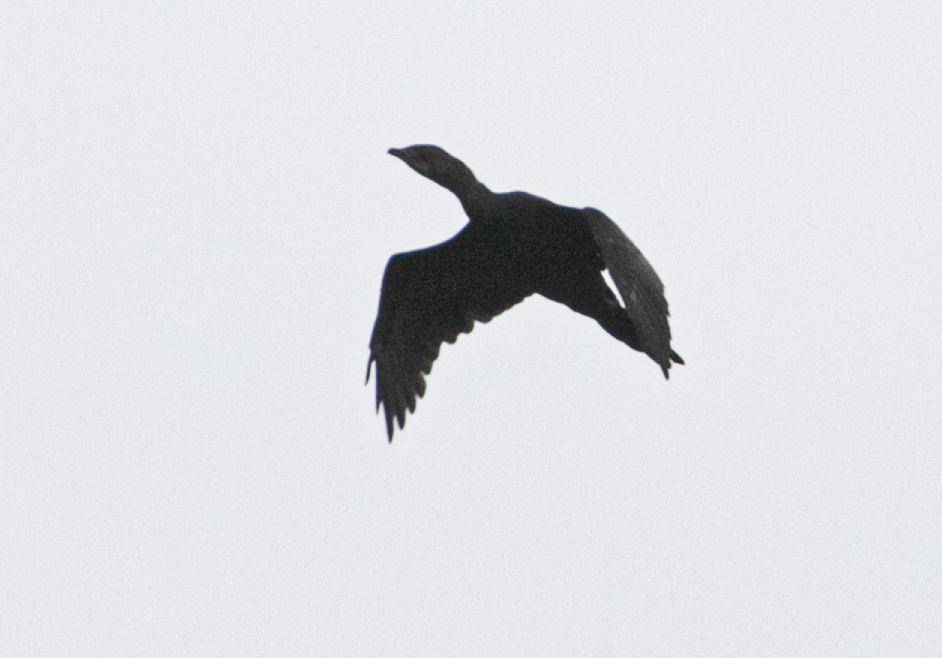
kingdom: Animalia
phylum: Chordata
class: Aves
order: Suliformes
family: Phalacrocoracidae
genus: Microcarbo
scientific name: Microcarbo pygmaeus
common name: Pygmy cormorant
